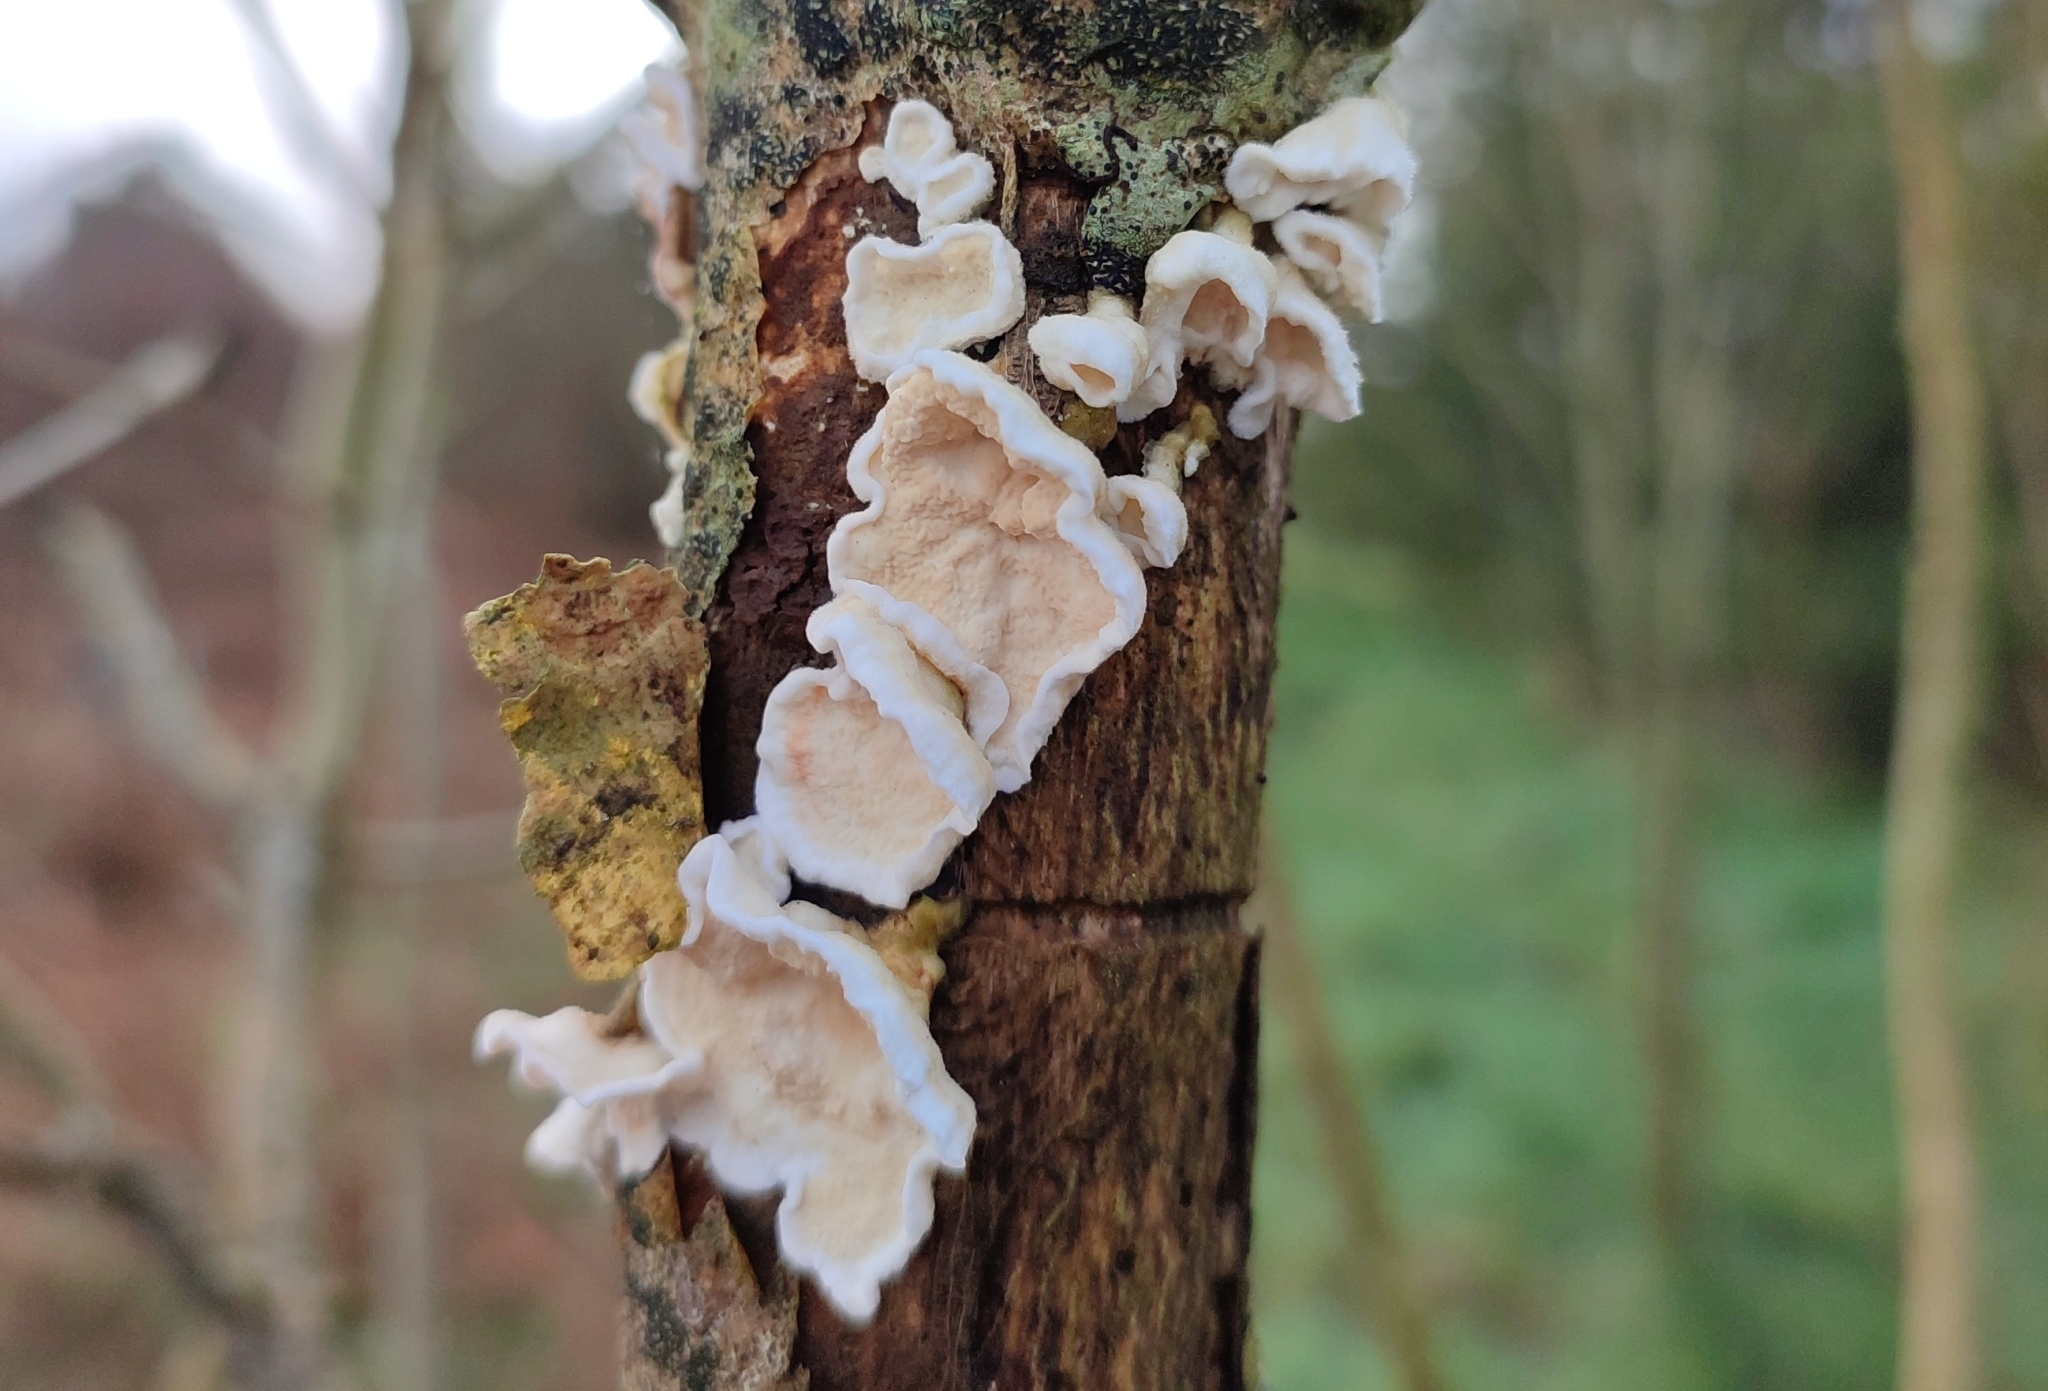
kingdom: Fungi
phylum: Basidiomycota
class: Agaricomycetes
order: Polyporales
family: Irpicaceae
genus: Byssomerulius
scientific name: Byssomerulius corium
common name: Netted crust
